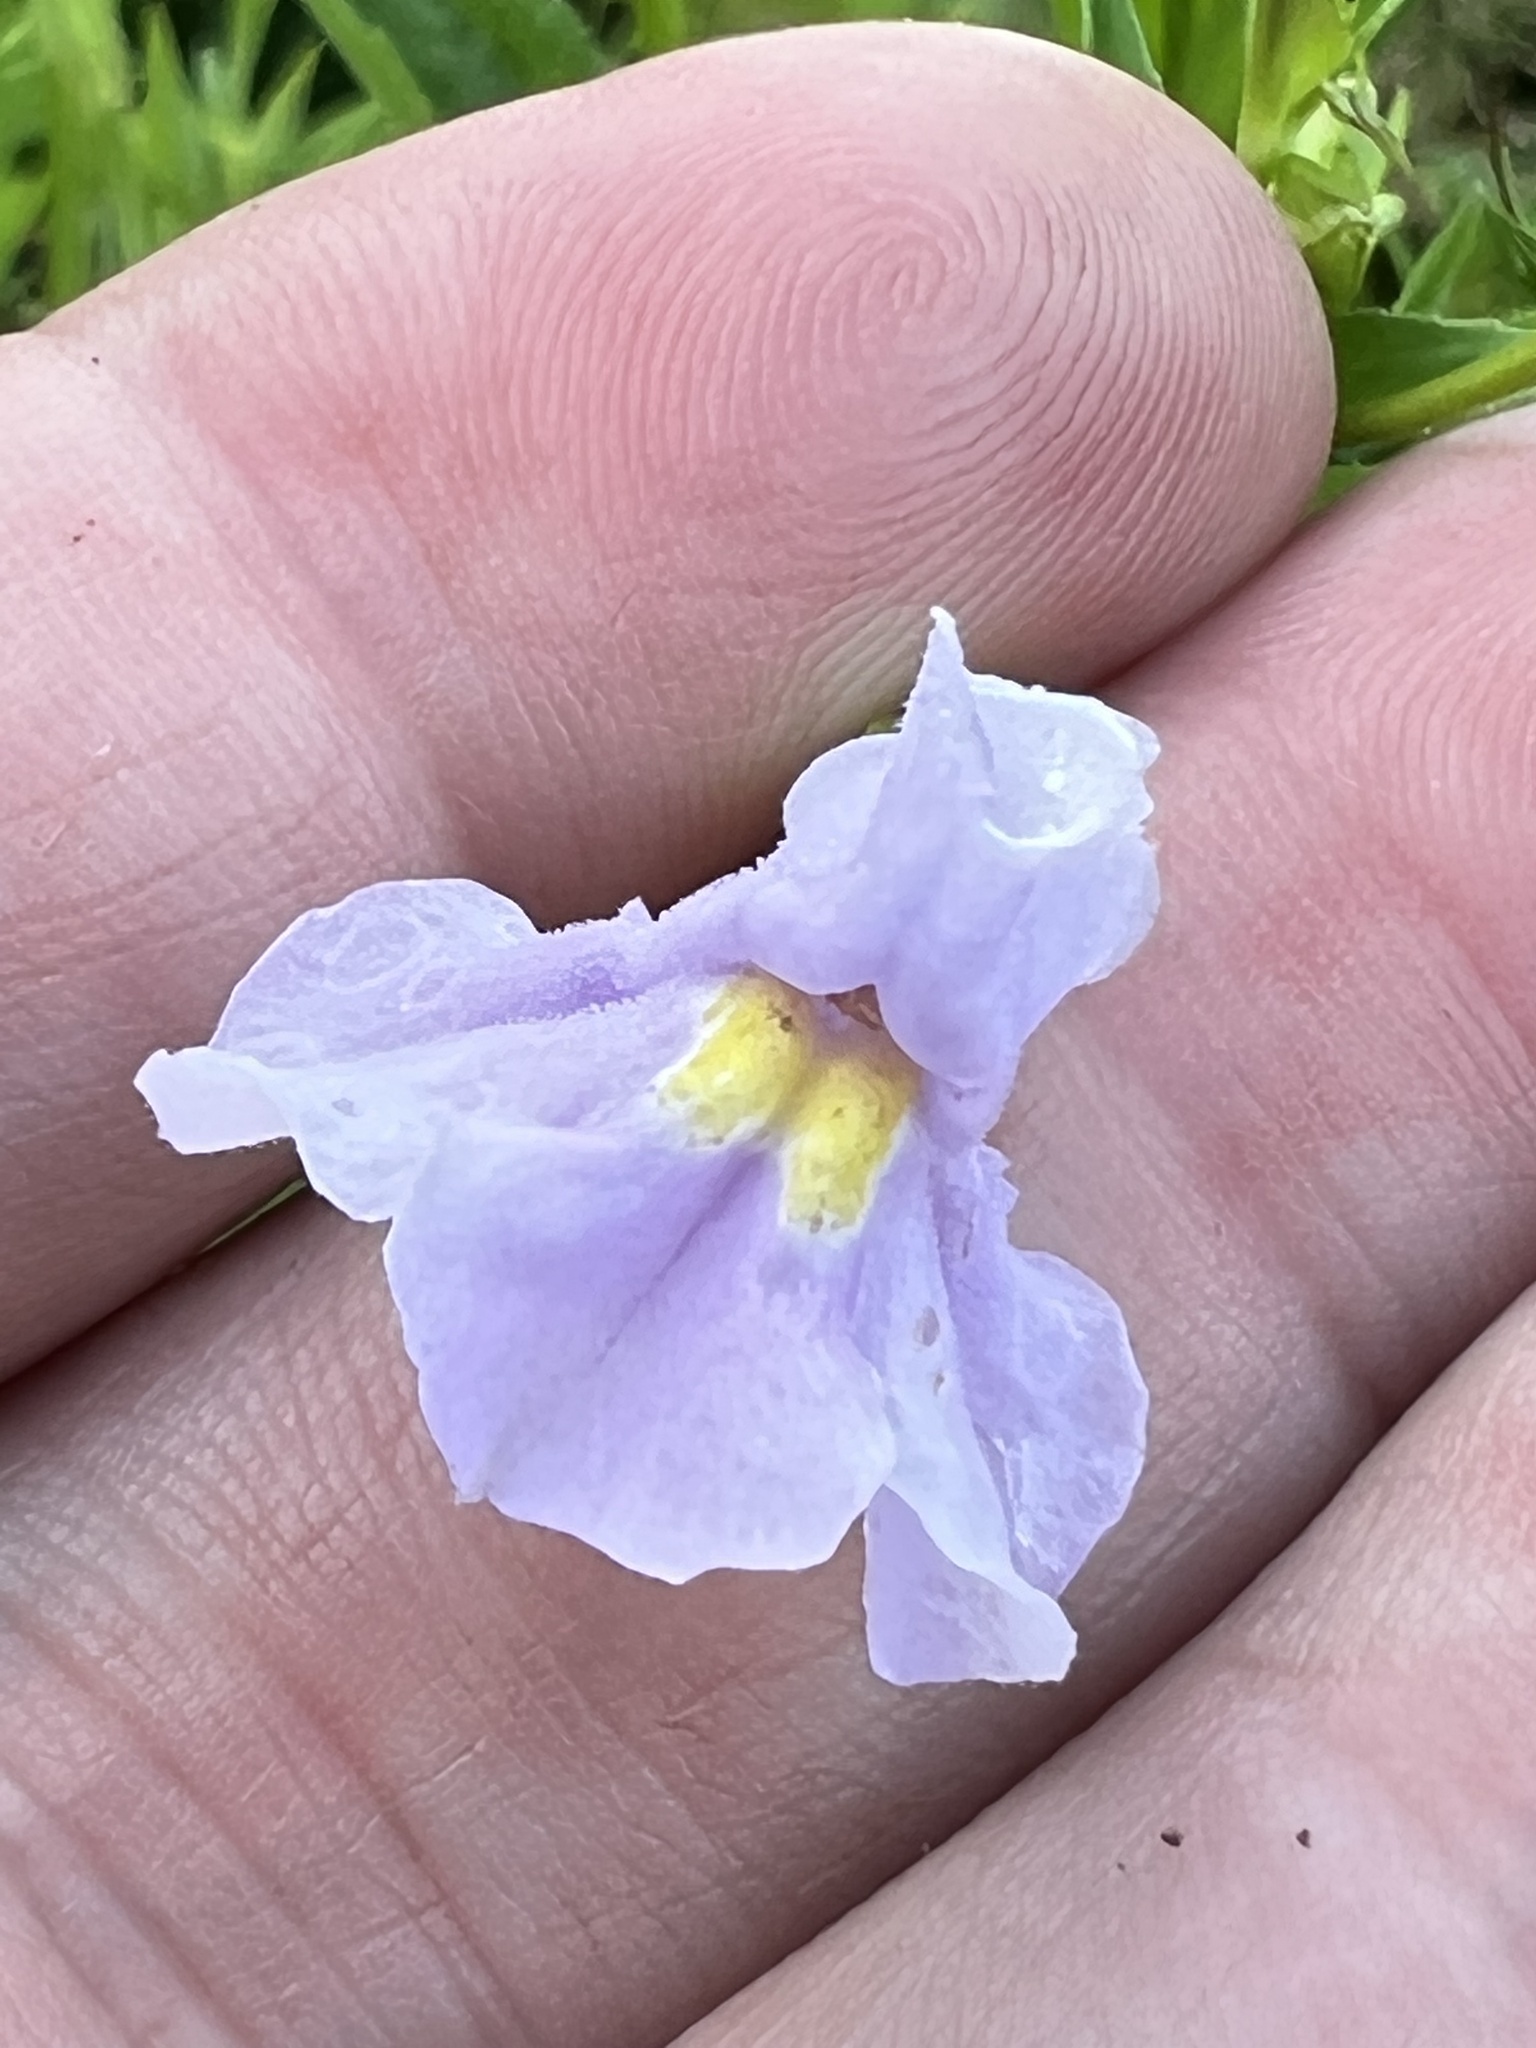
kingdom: Plantae
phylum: Tracheophyta
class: Magnoliopsida
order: Lamiales
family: Phrymaceae
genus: Mimulus
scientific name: Mimulus ringens
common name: Allegheny monkeyflower
